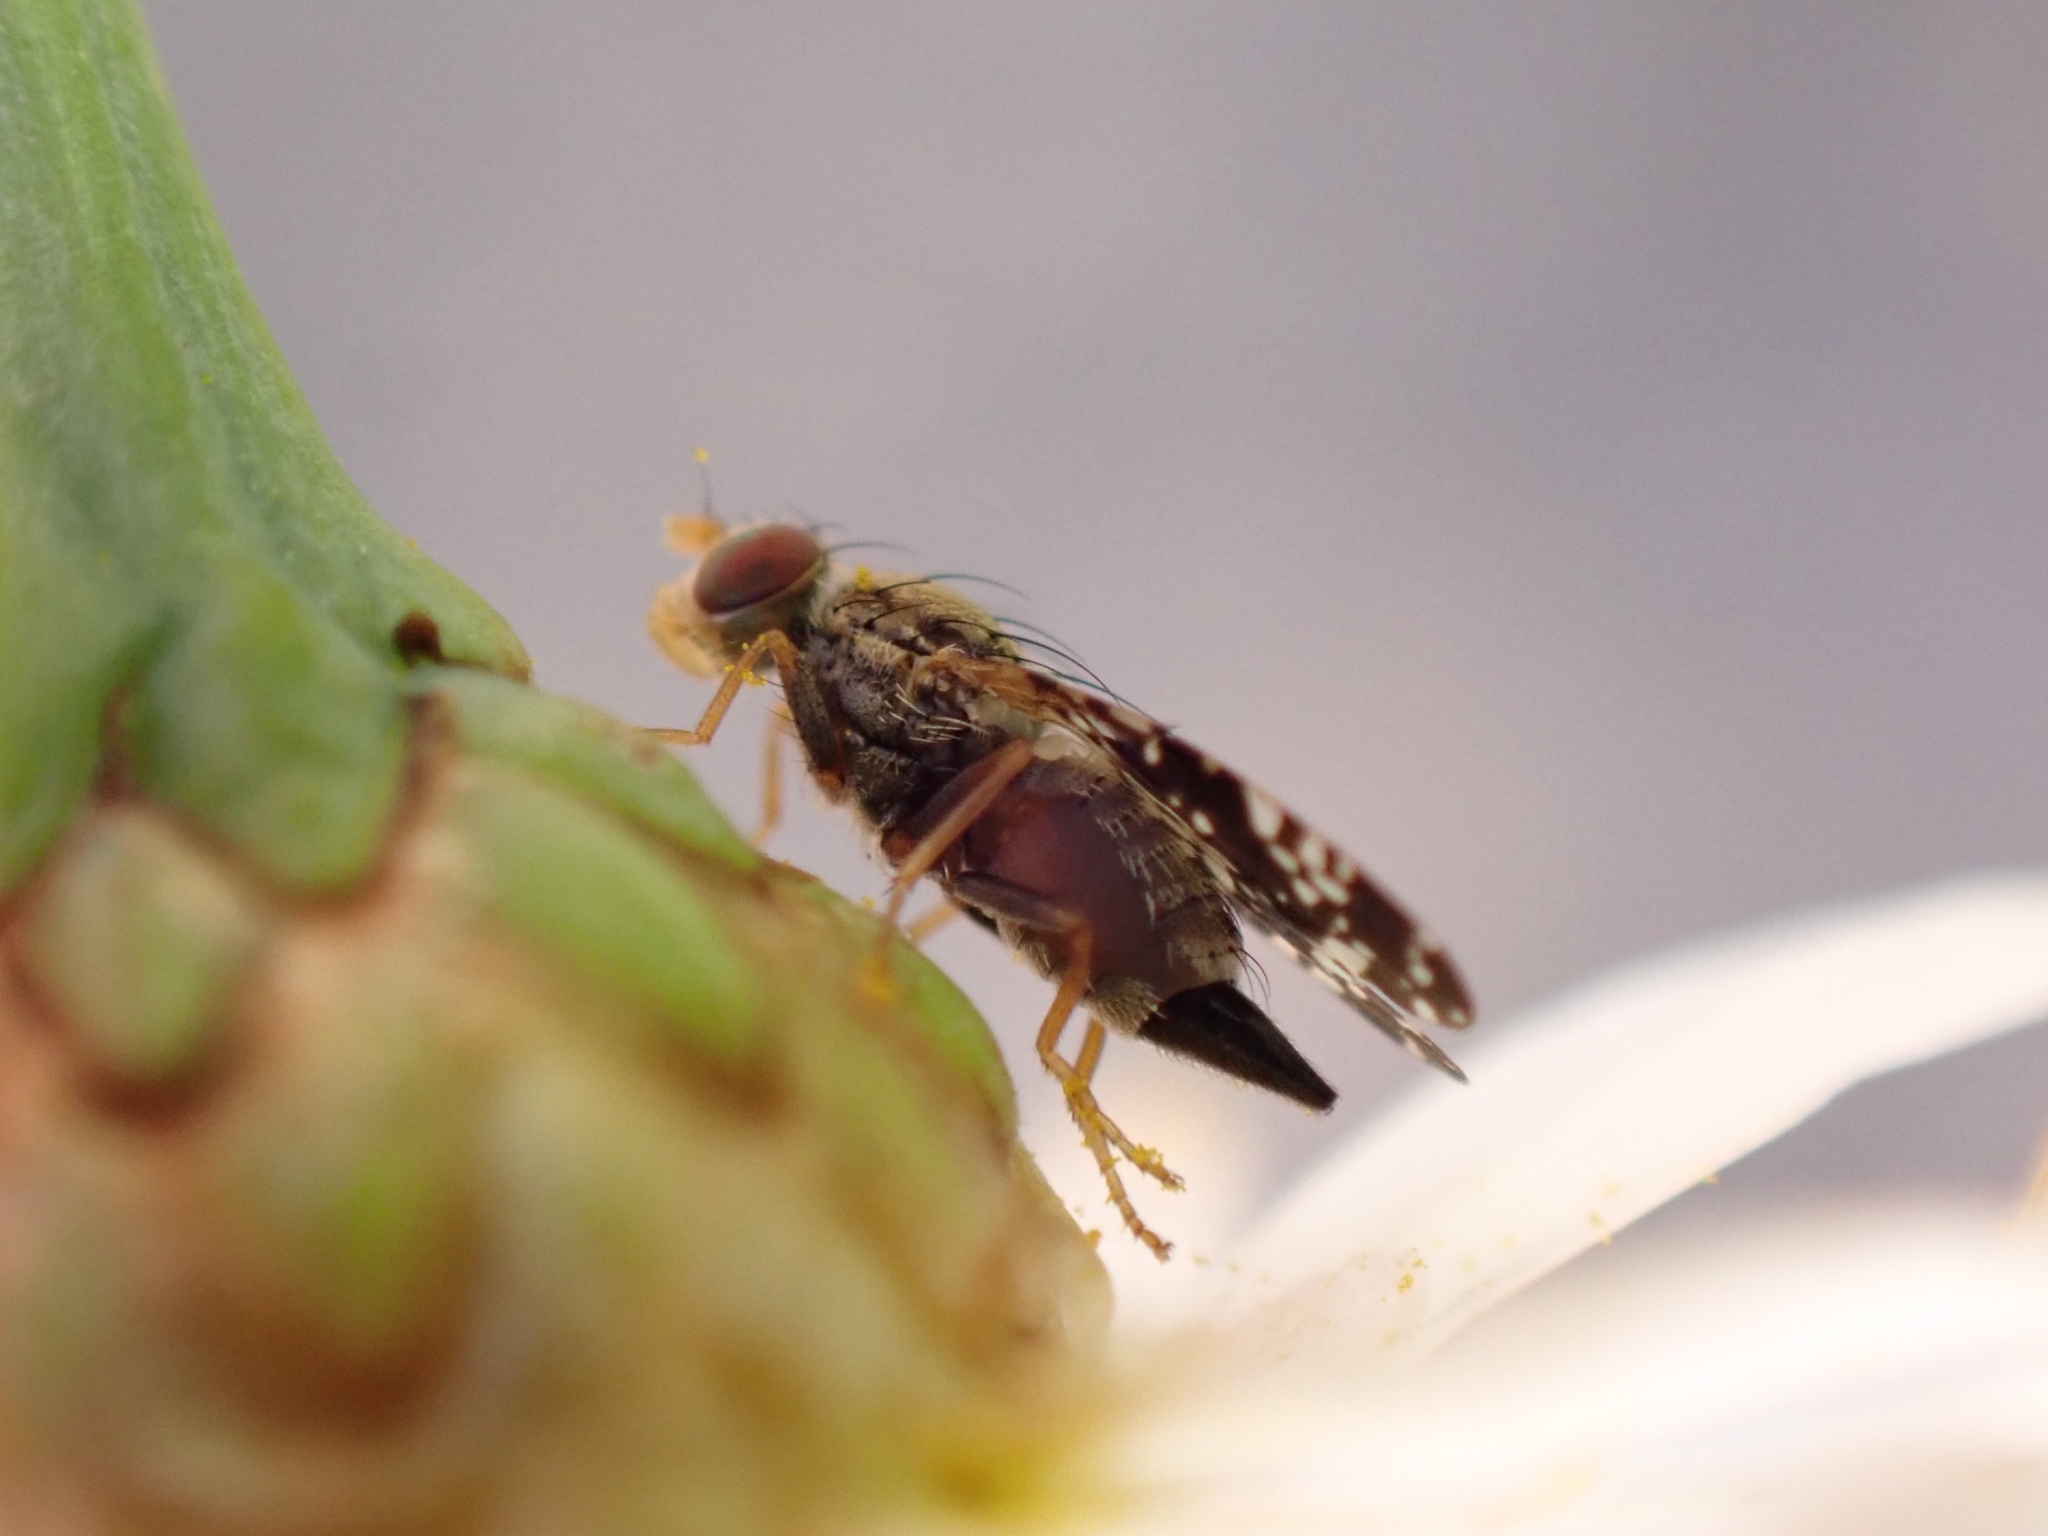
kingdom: Animalia
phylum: Arthropoda
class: Insecta
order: Diptera
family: Tephritidae
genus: Campiglossa
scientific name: Campiglossa reticulata
